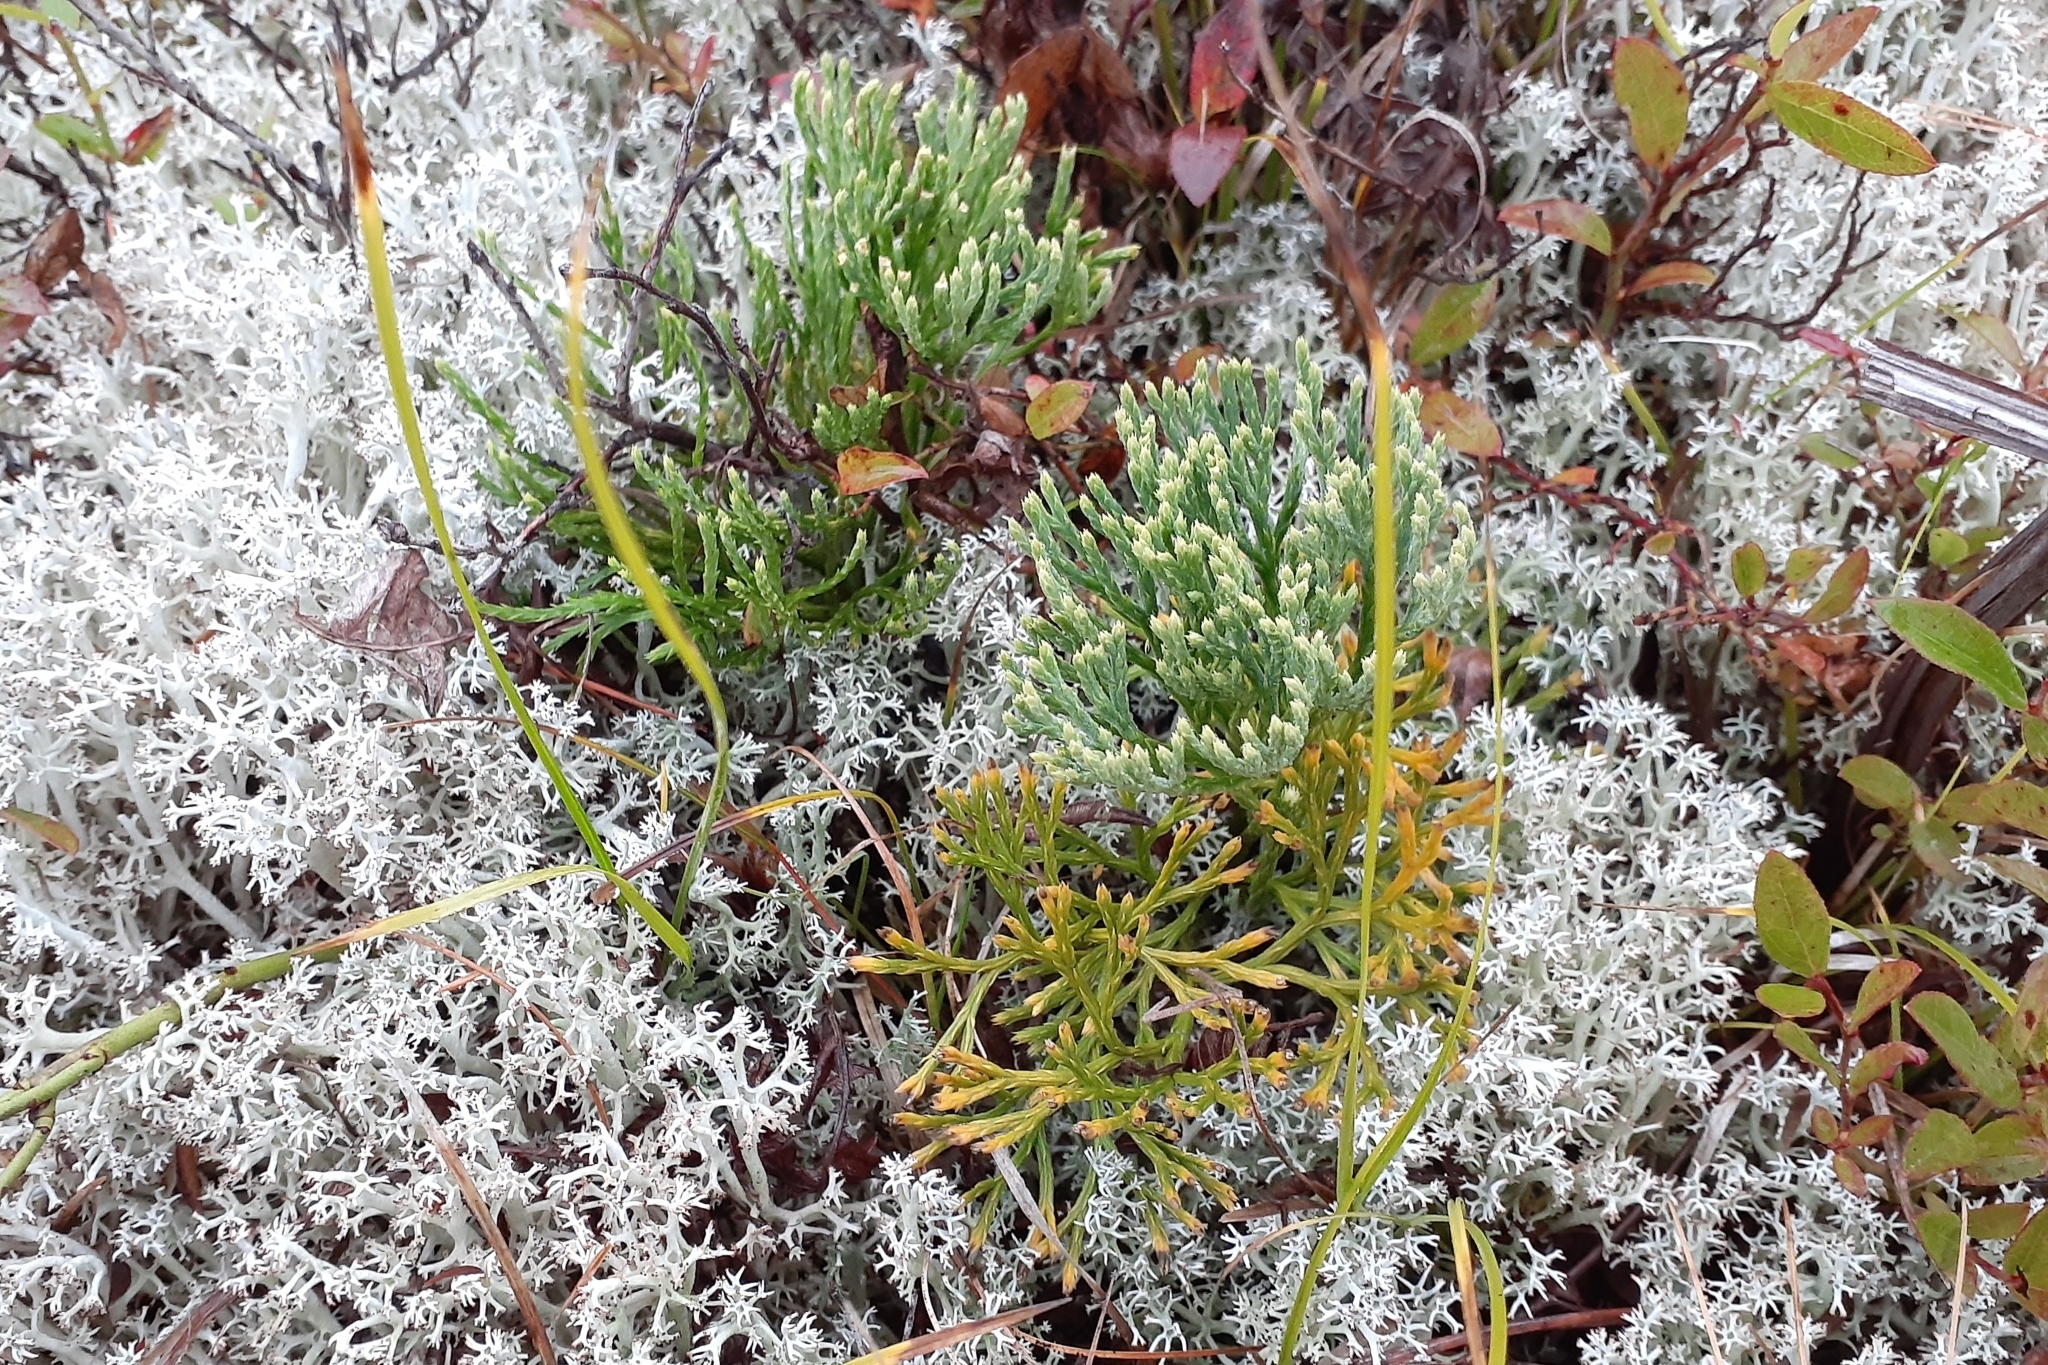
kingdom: Plantae
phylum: Tracheophyta
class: Lycopodiopsida
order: Lycopodiales
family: Lycopodiaceae
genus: Diphasiastrum
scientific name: Diphasiastrum tristachyum
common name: Blue ground-cedar
